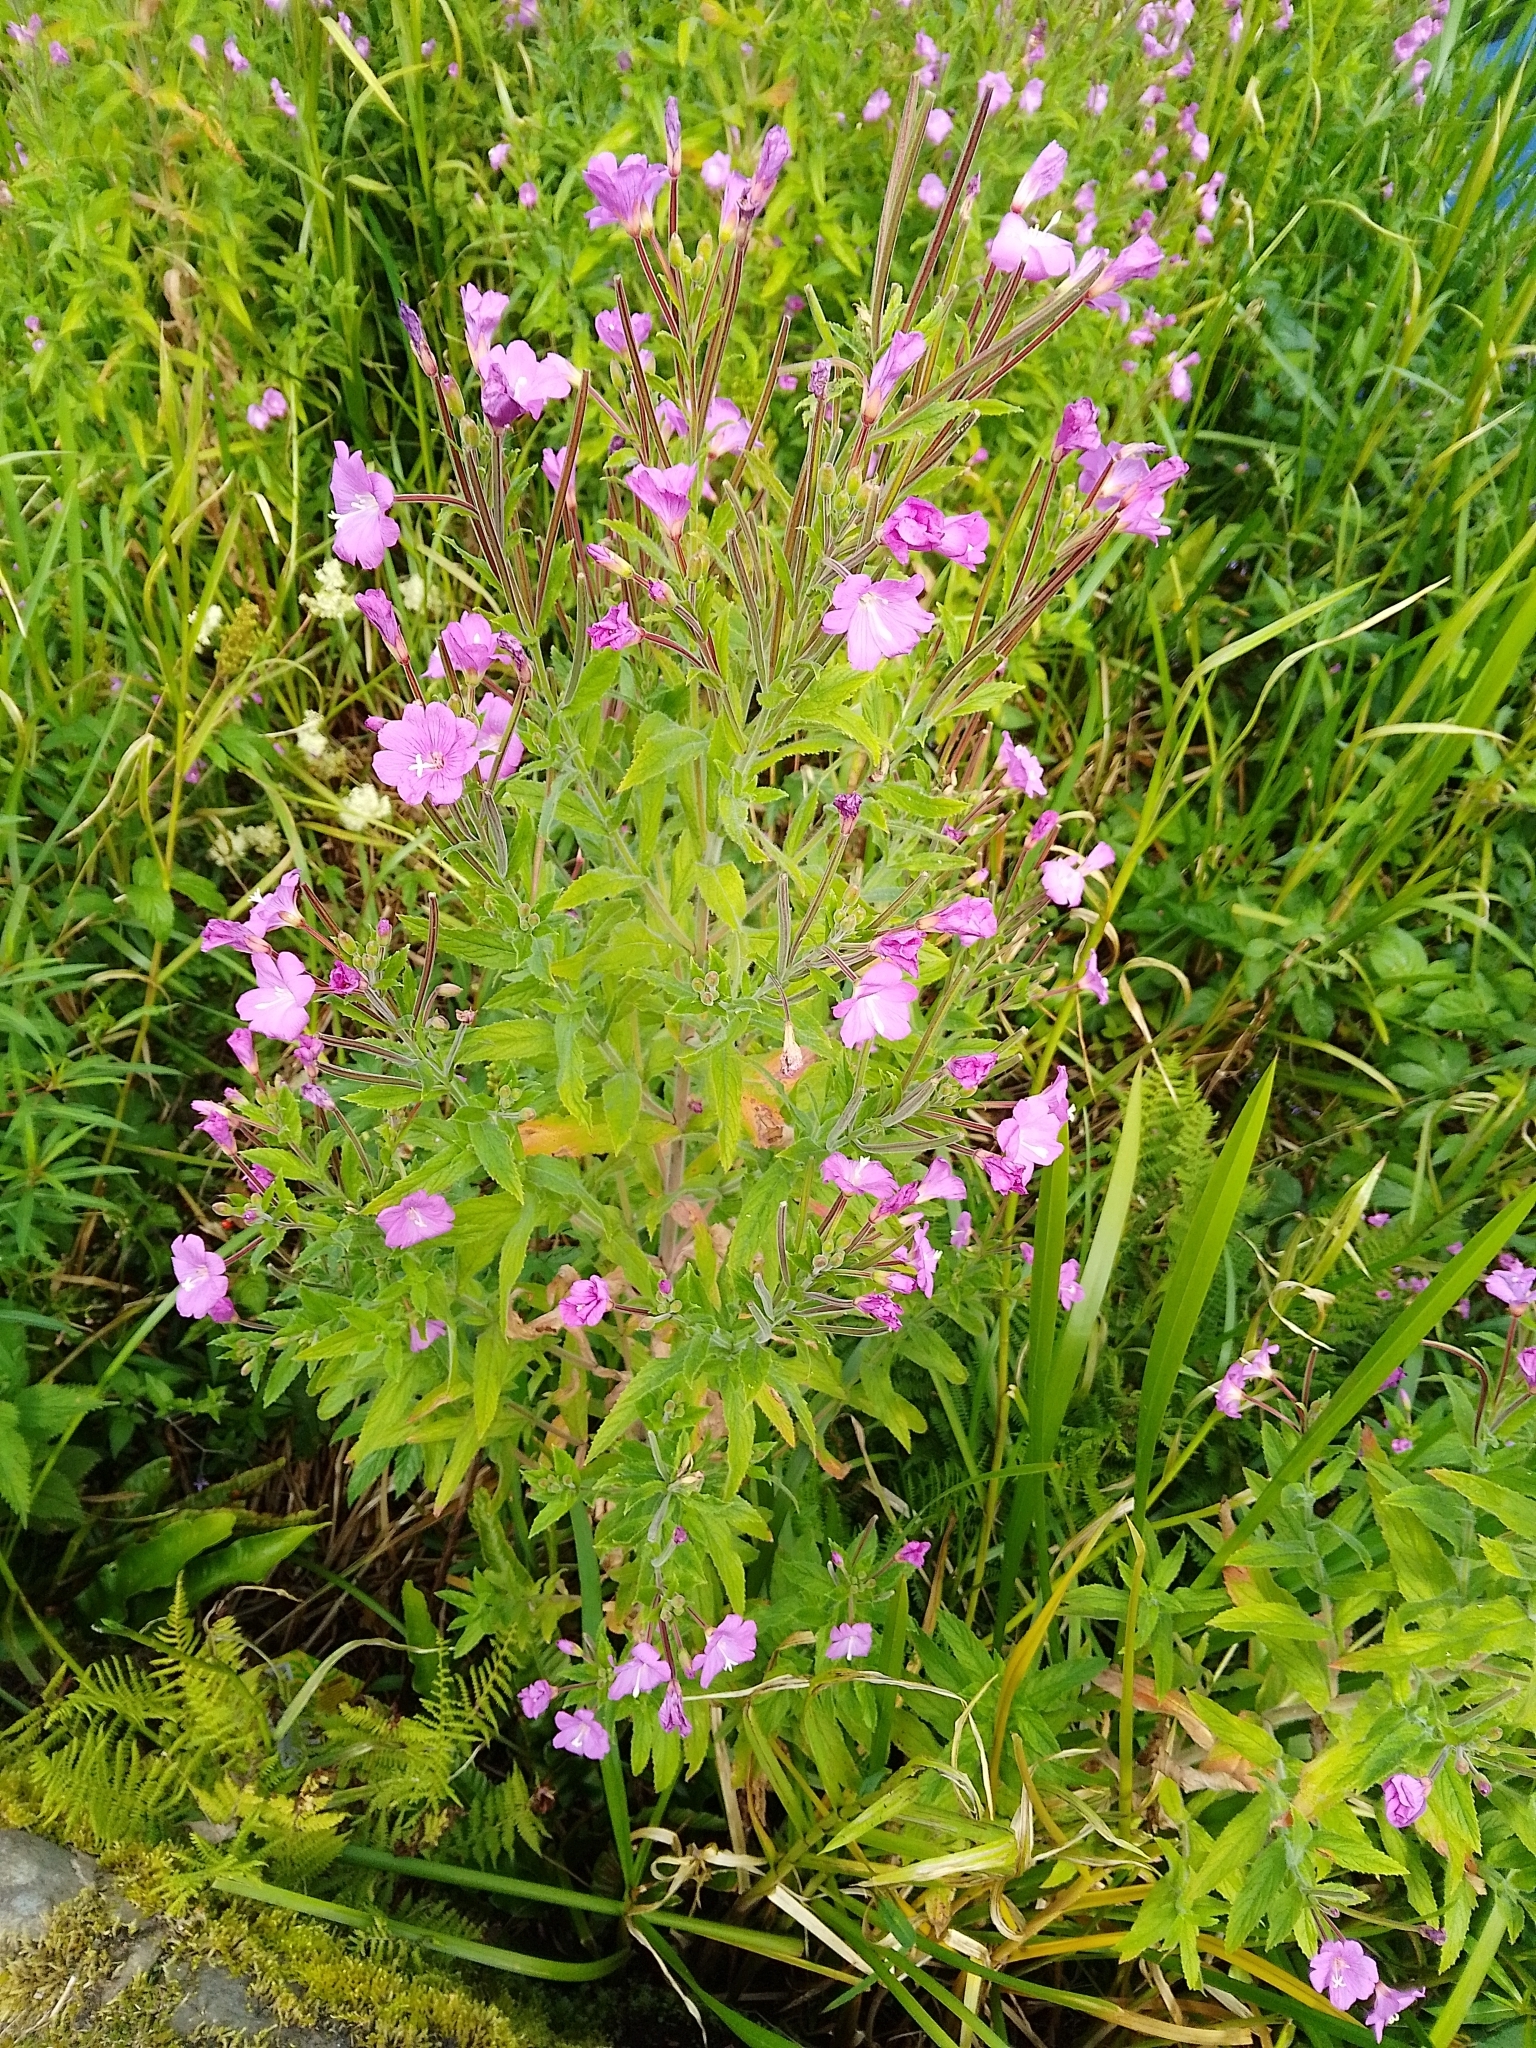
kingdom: Plantae
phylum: Tracheophyta
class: Magnoliopsida
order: Myrtales
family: Onagraceae
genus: Epilobium
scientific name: Epilobium hirsutum
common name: Great willowherb
